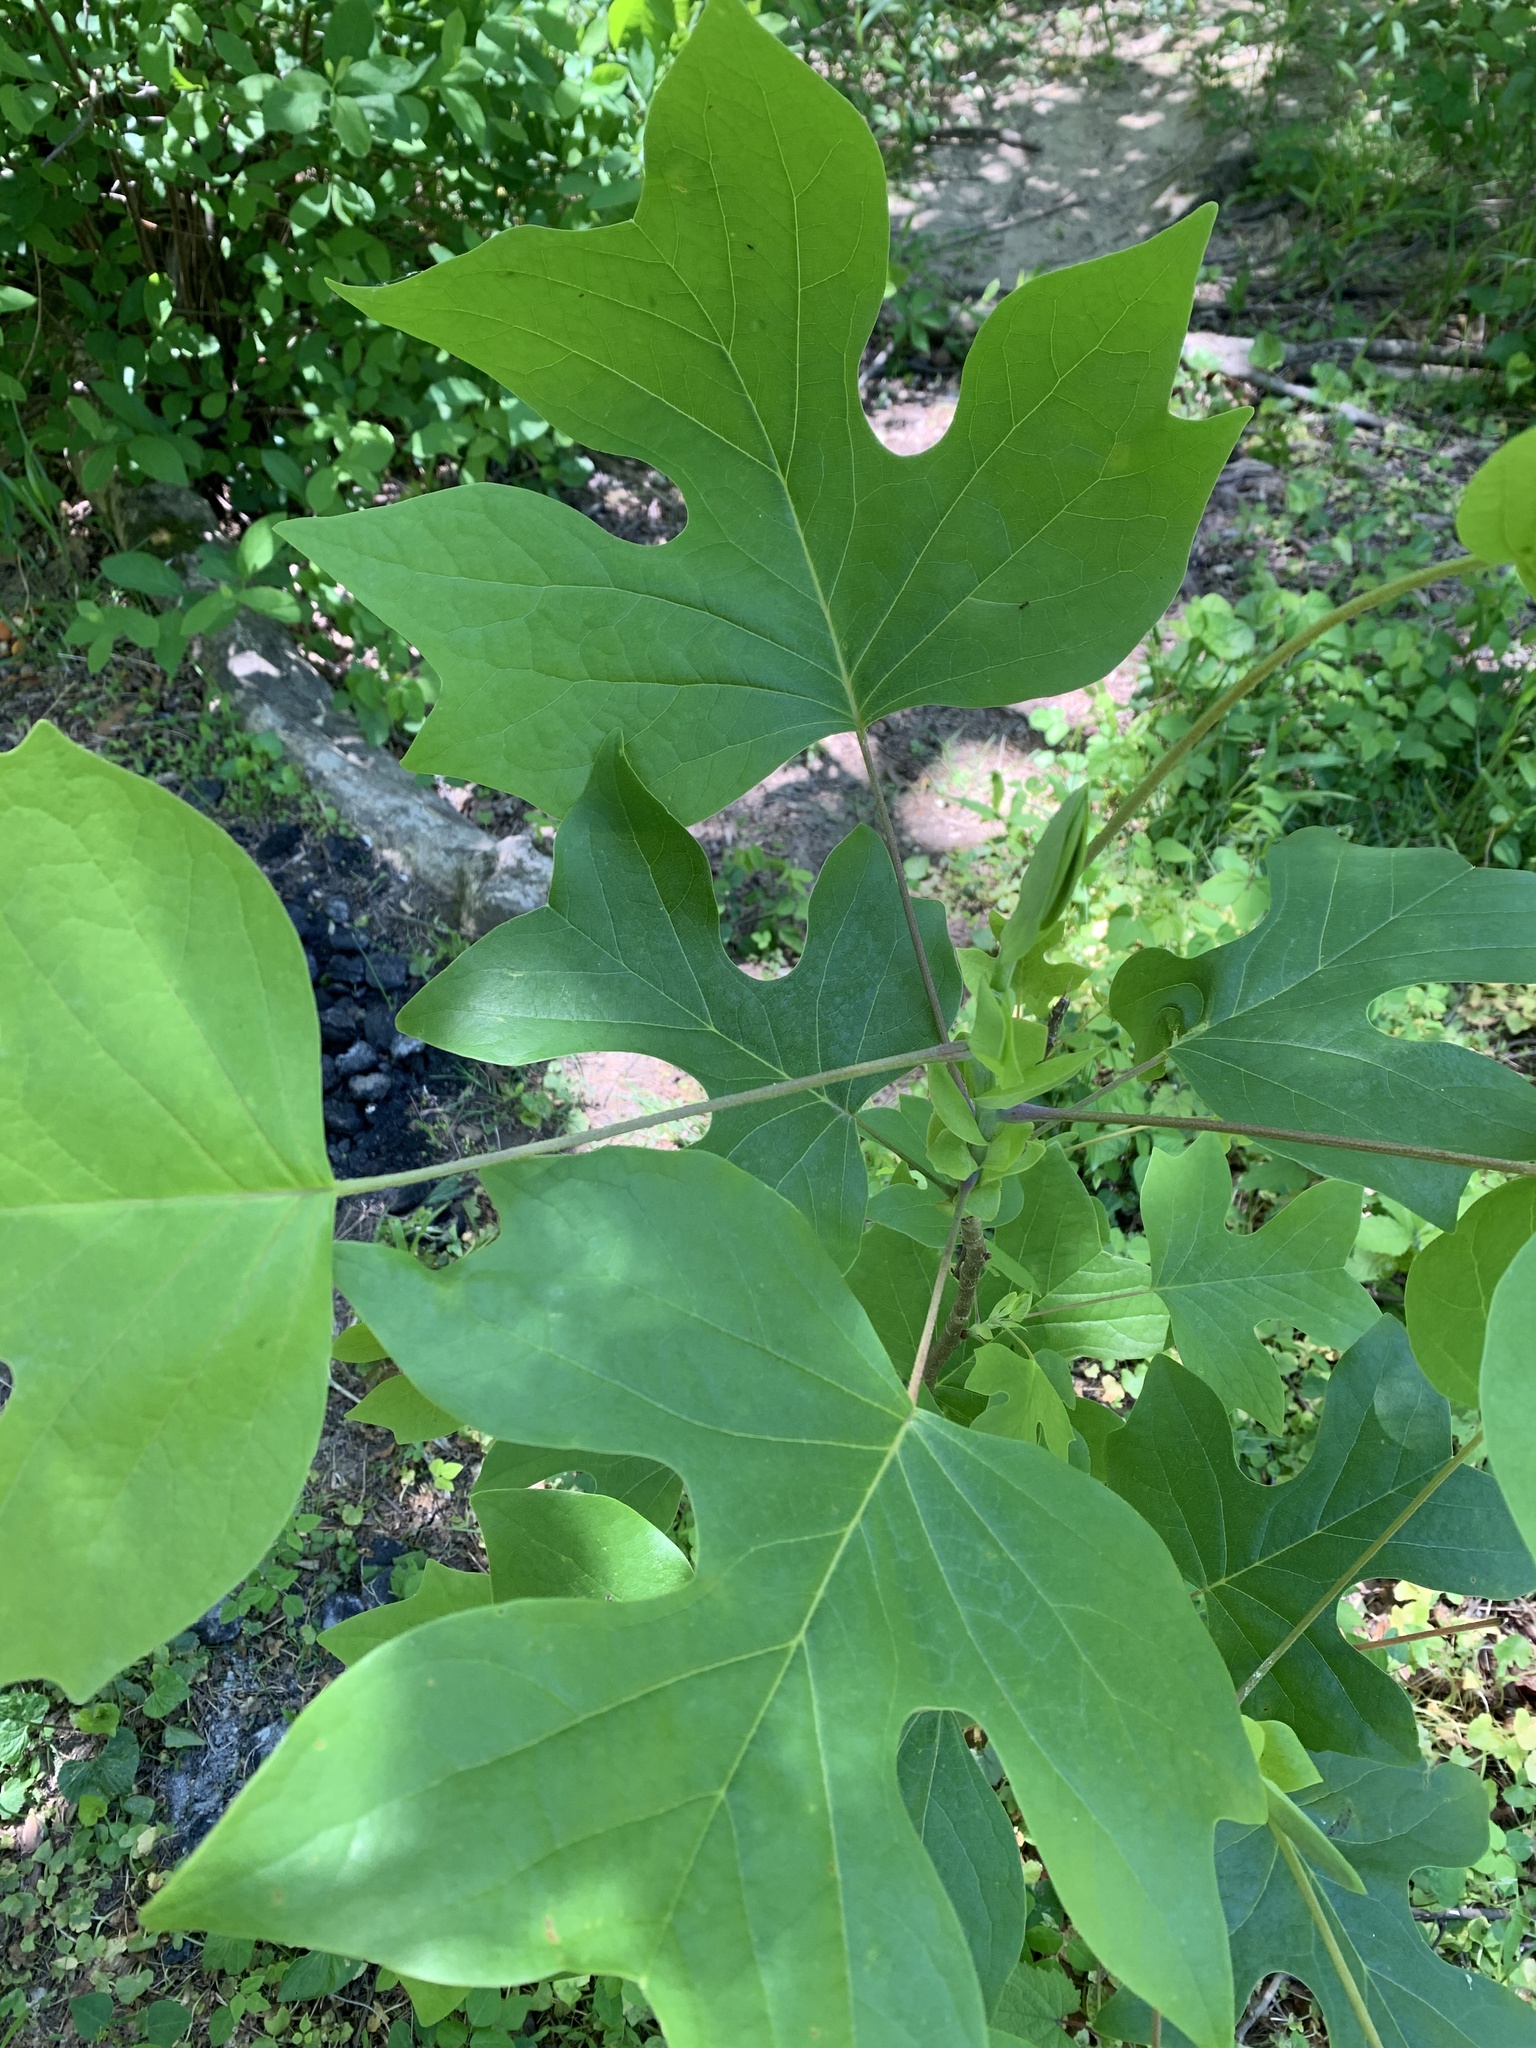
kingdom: Plantae
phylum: Tracheophyta
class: Magnoliopsida
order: Magnoliales
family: Magnoliaceae
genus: Liriodendron
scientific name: Liriodendron tulipifera
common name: Tulip tree
